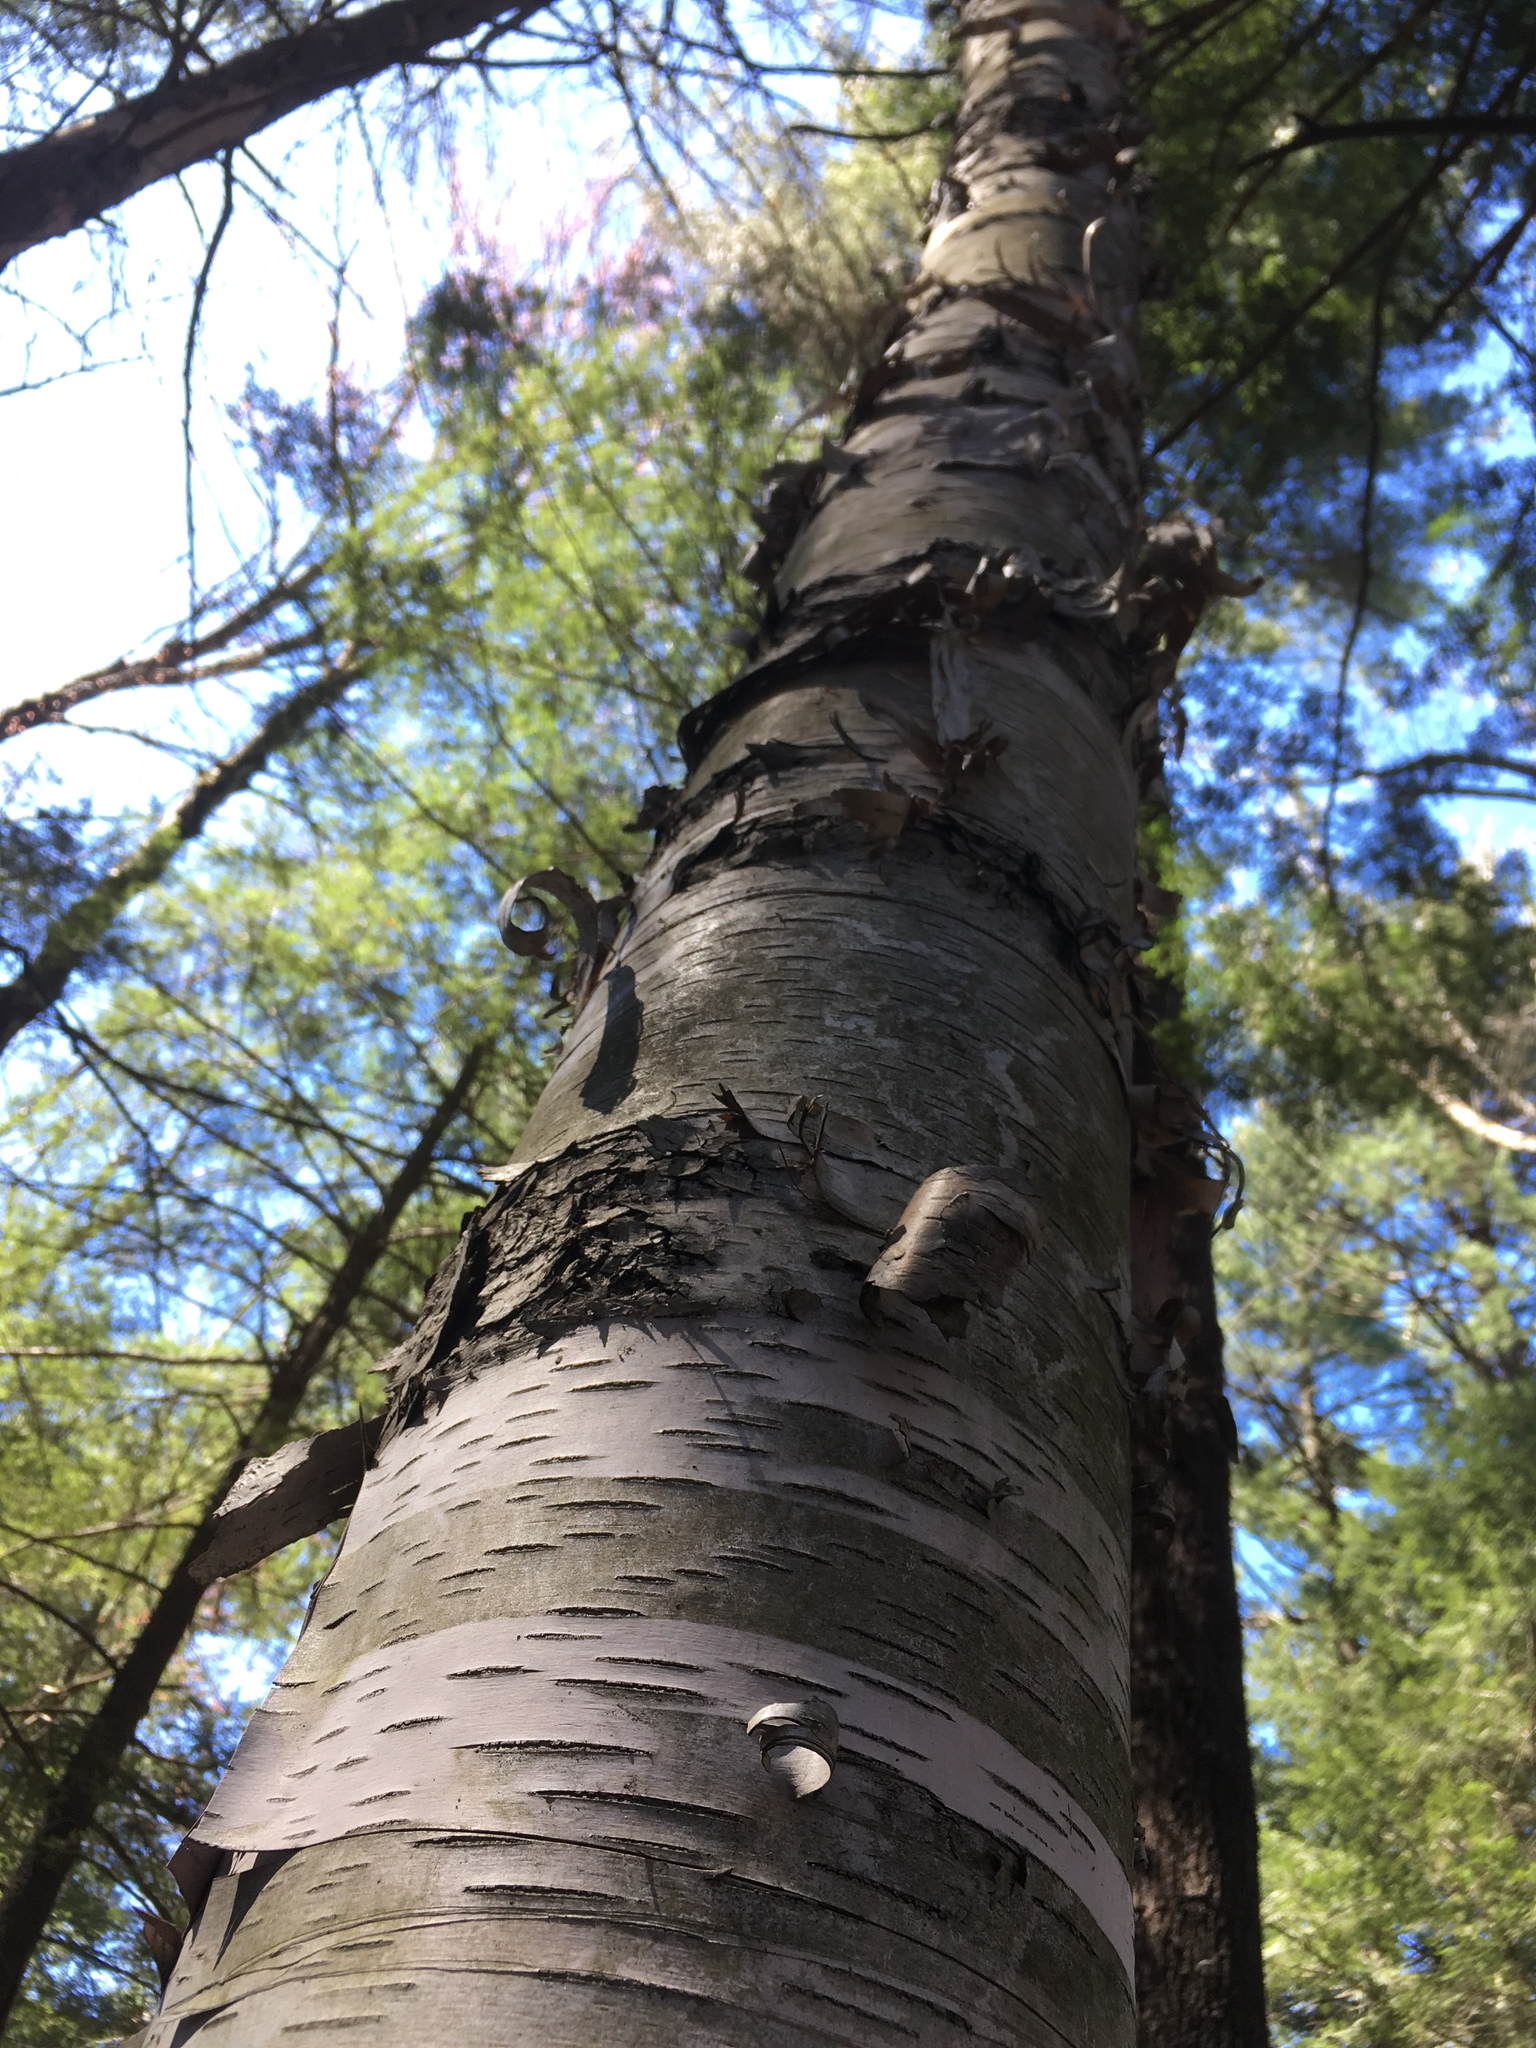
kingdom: Plantae
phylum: Tracheophyta
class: Magnoliopsida
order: Fagales
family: Betulaceae
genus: Betula
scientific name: Betula papyrifera
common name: Paper birch
